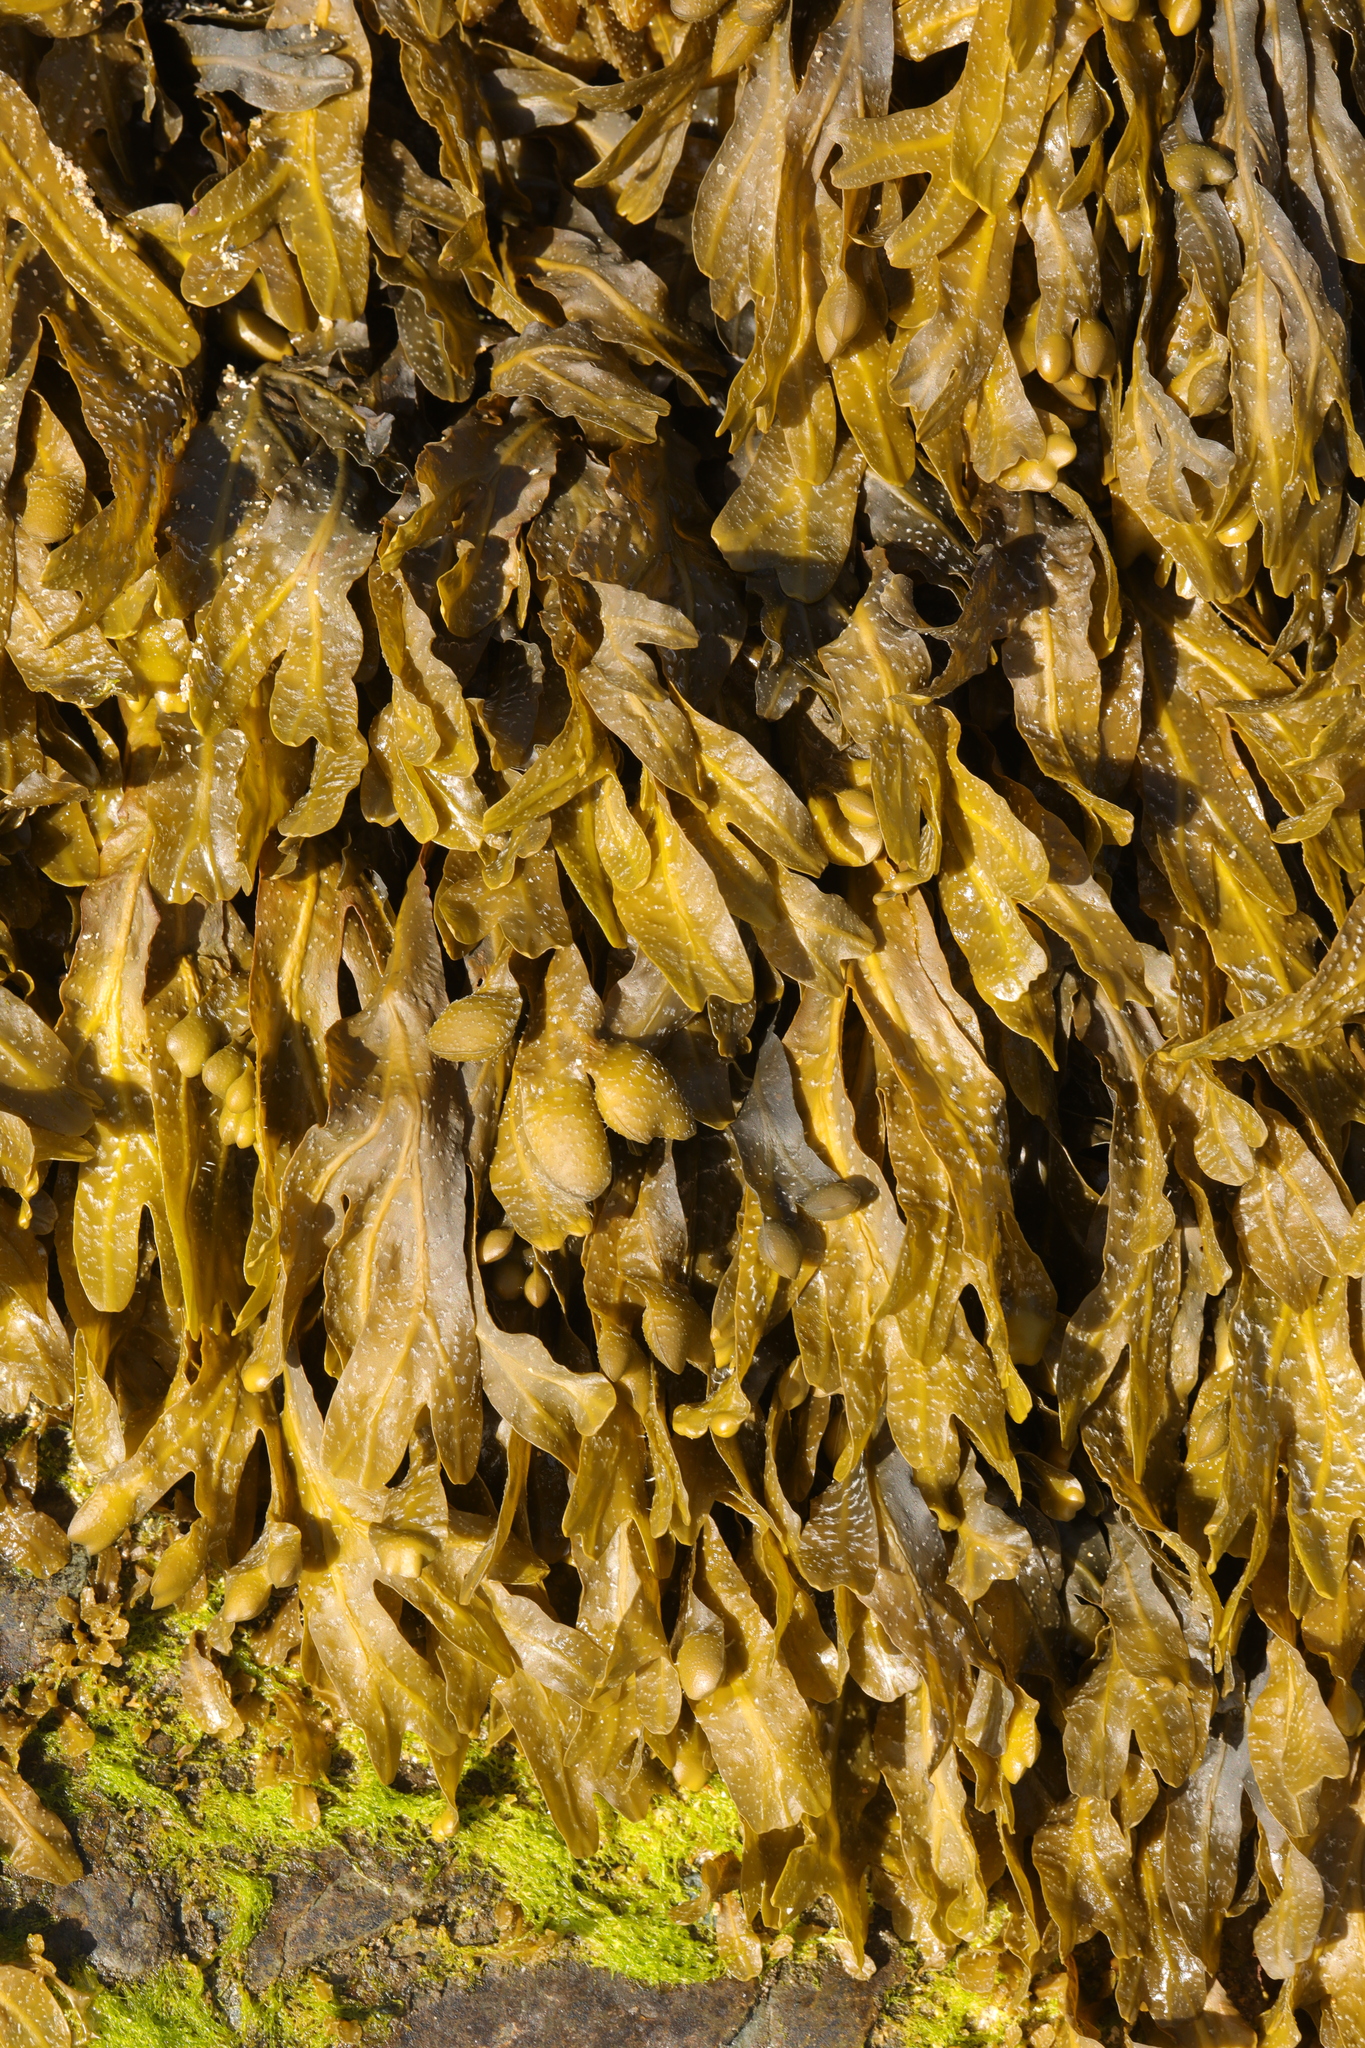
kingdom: Chromista
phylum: Ochrophyta
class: Phaeophyceae
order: Fucales
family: Fucaceae
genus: Fucus
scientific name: Fucus spiralis
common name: Spiral wrack
